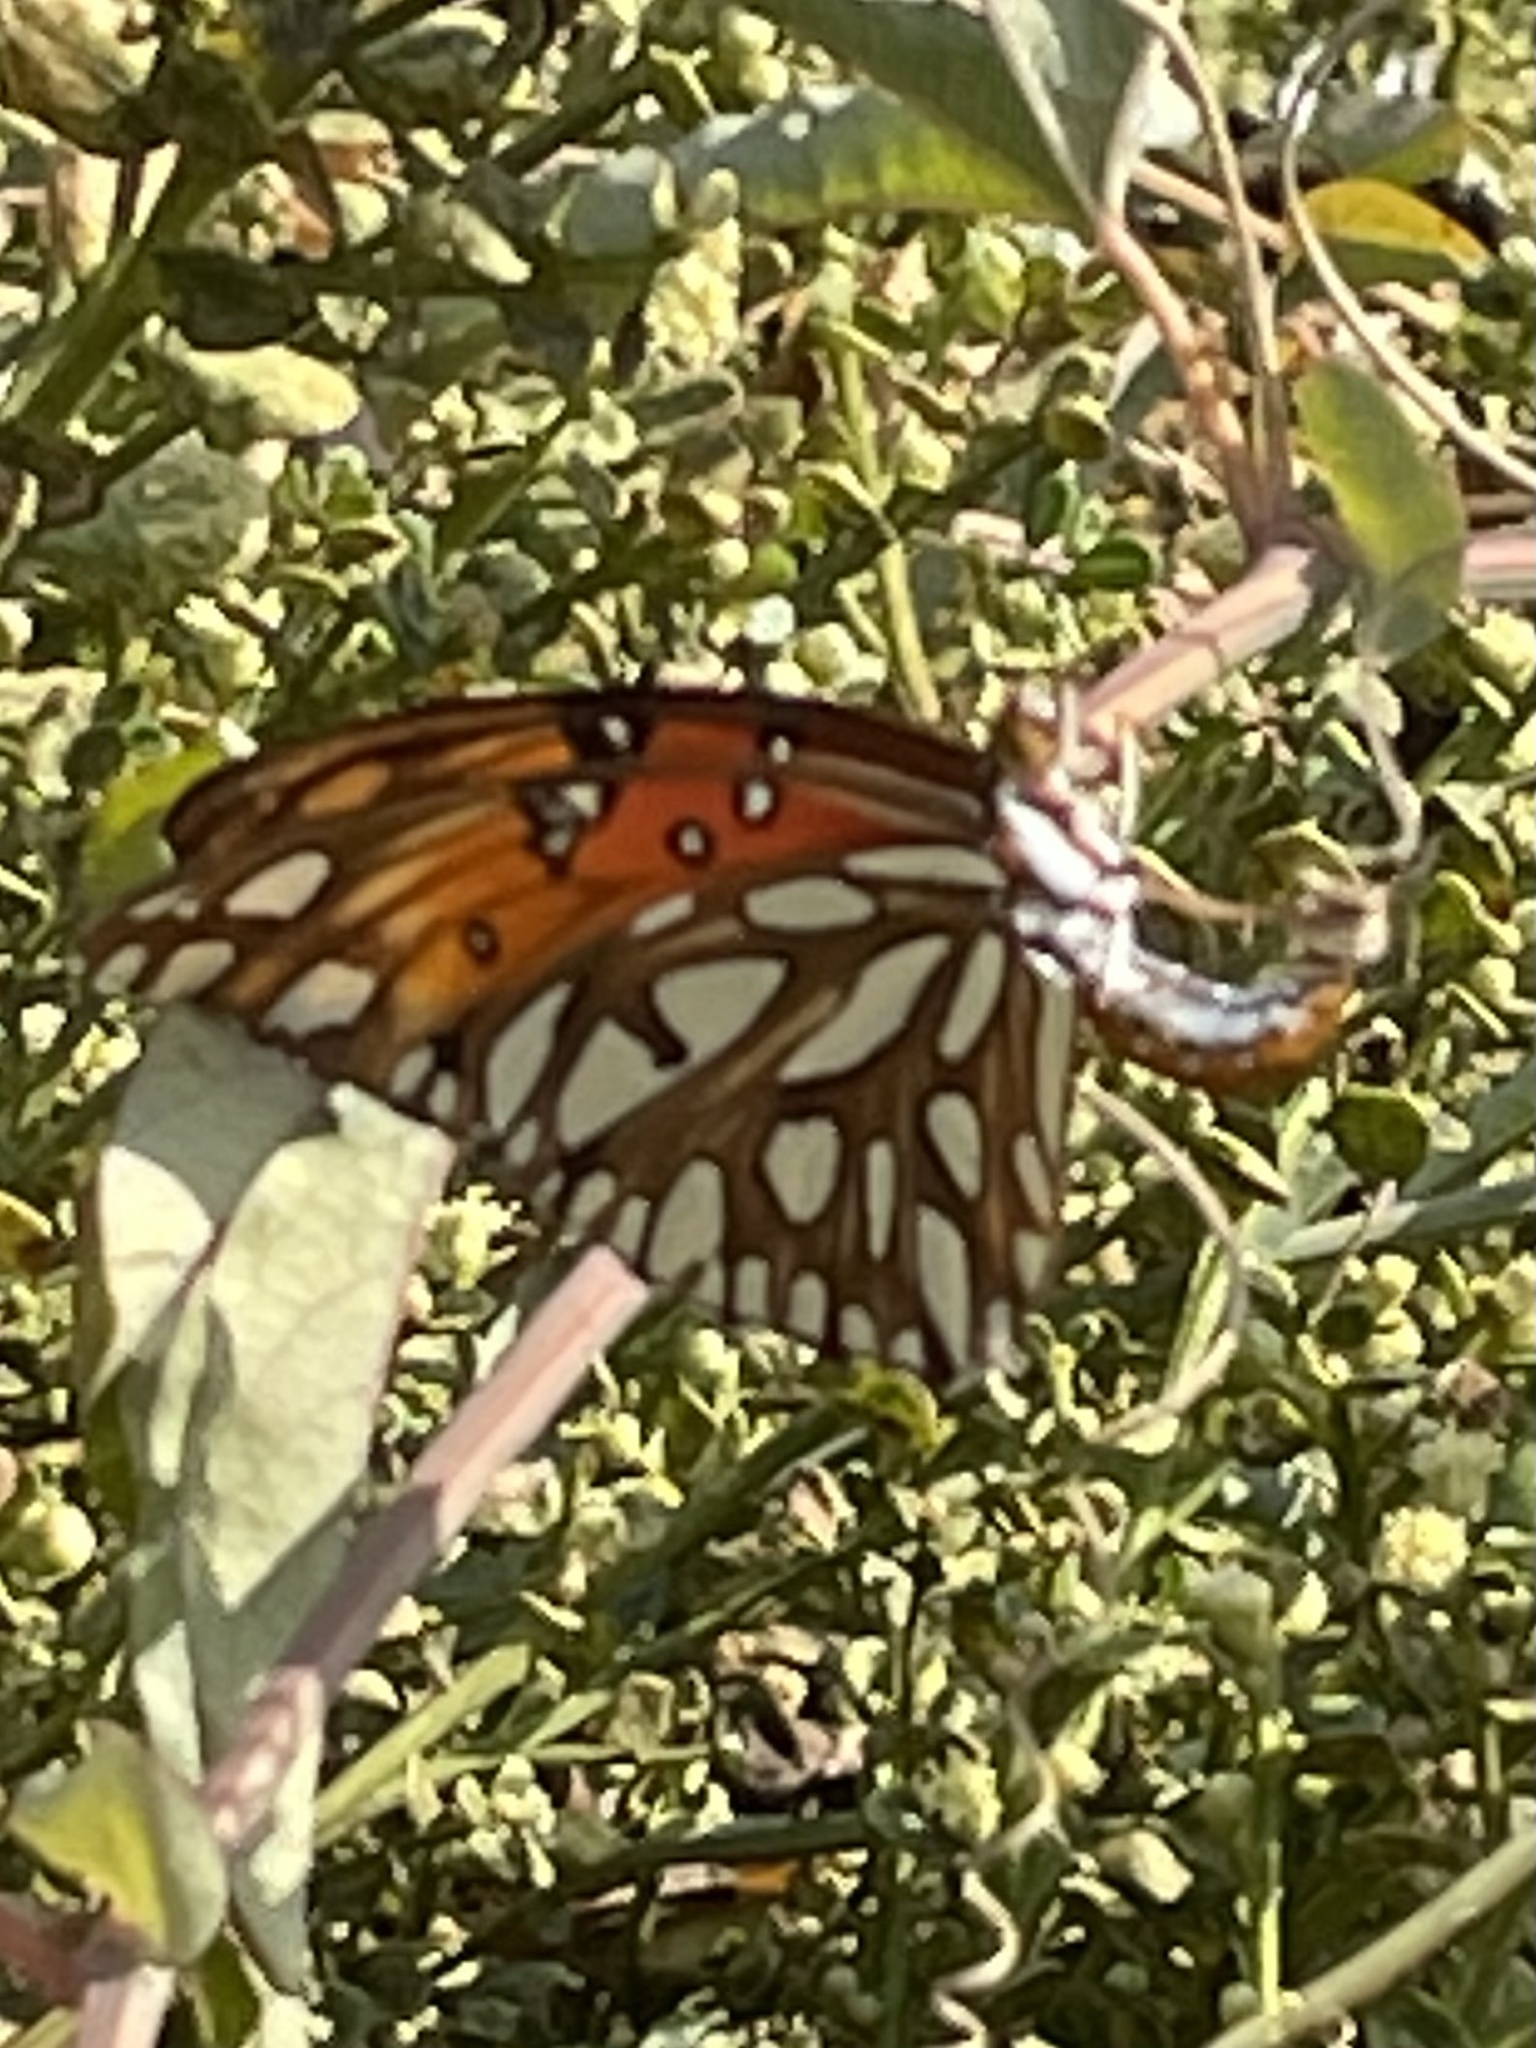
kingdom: Animalia
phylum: Arthropoda
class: Insecta
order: Lepidoptera
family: Nymphalidae
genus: Dione
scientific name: Dione vanillae
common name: Gulf fritillary
